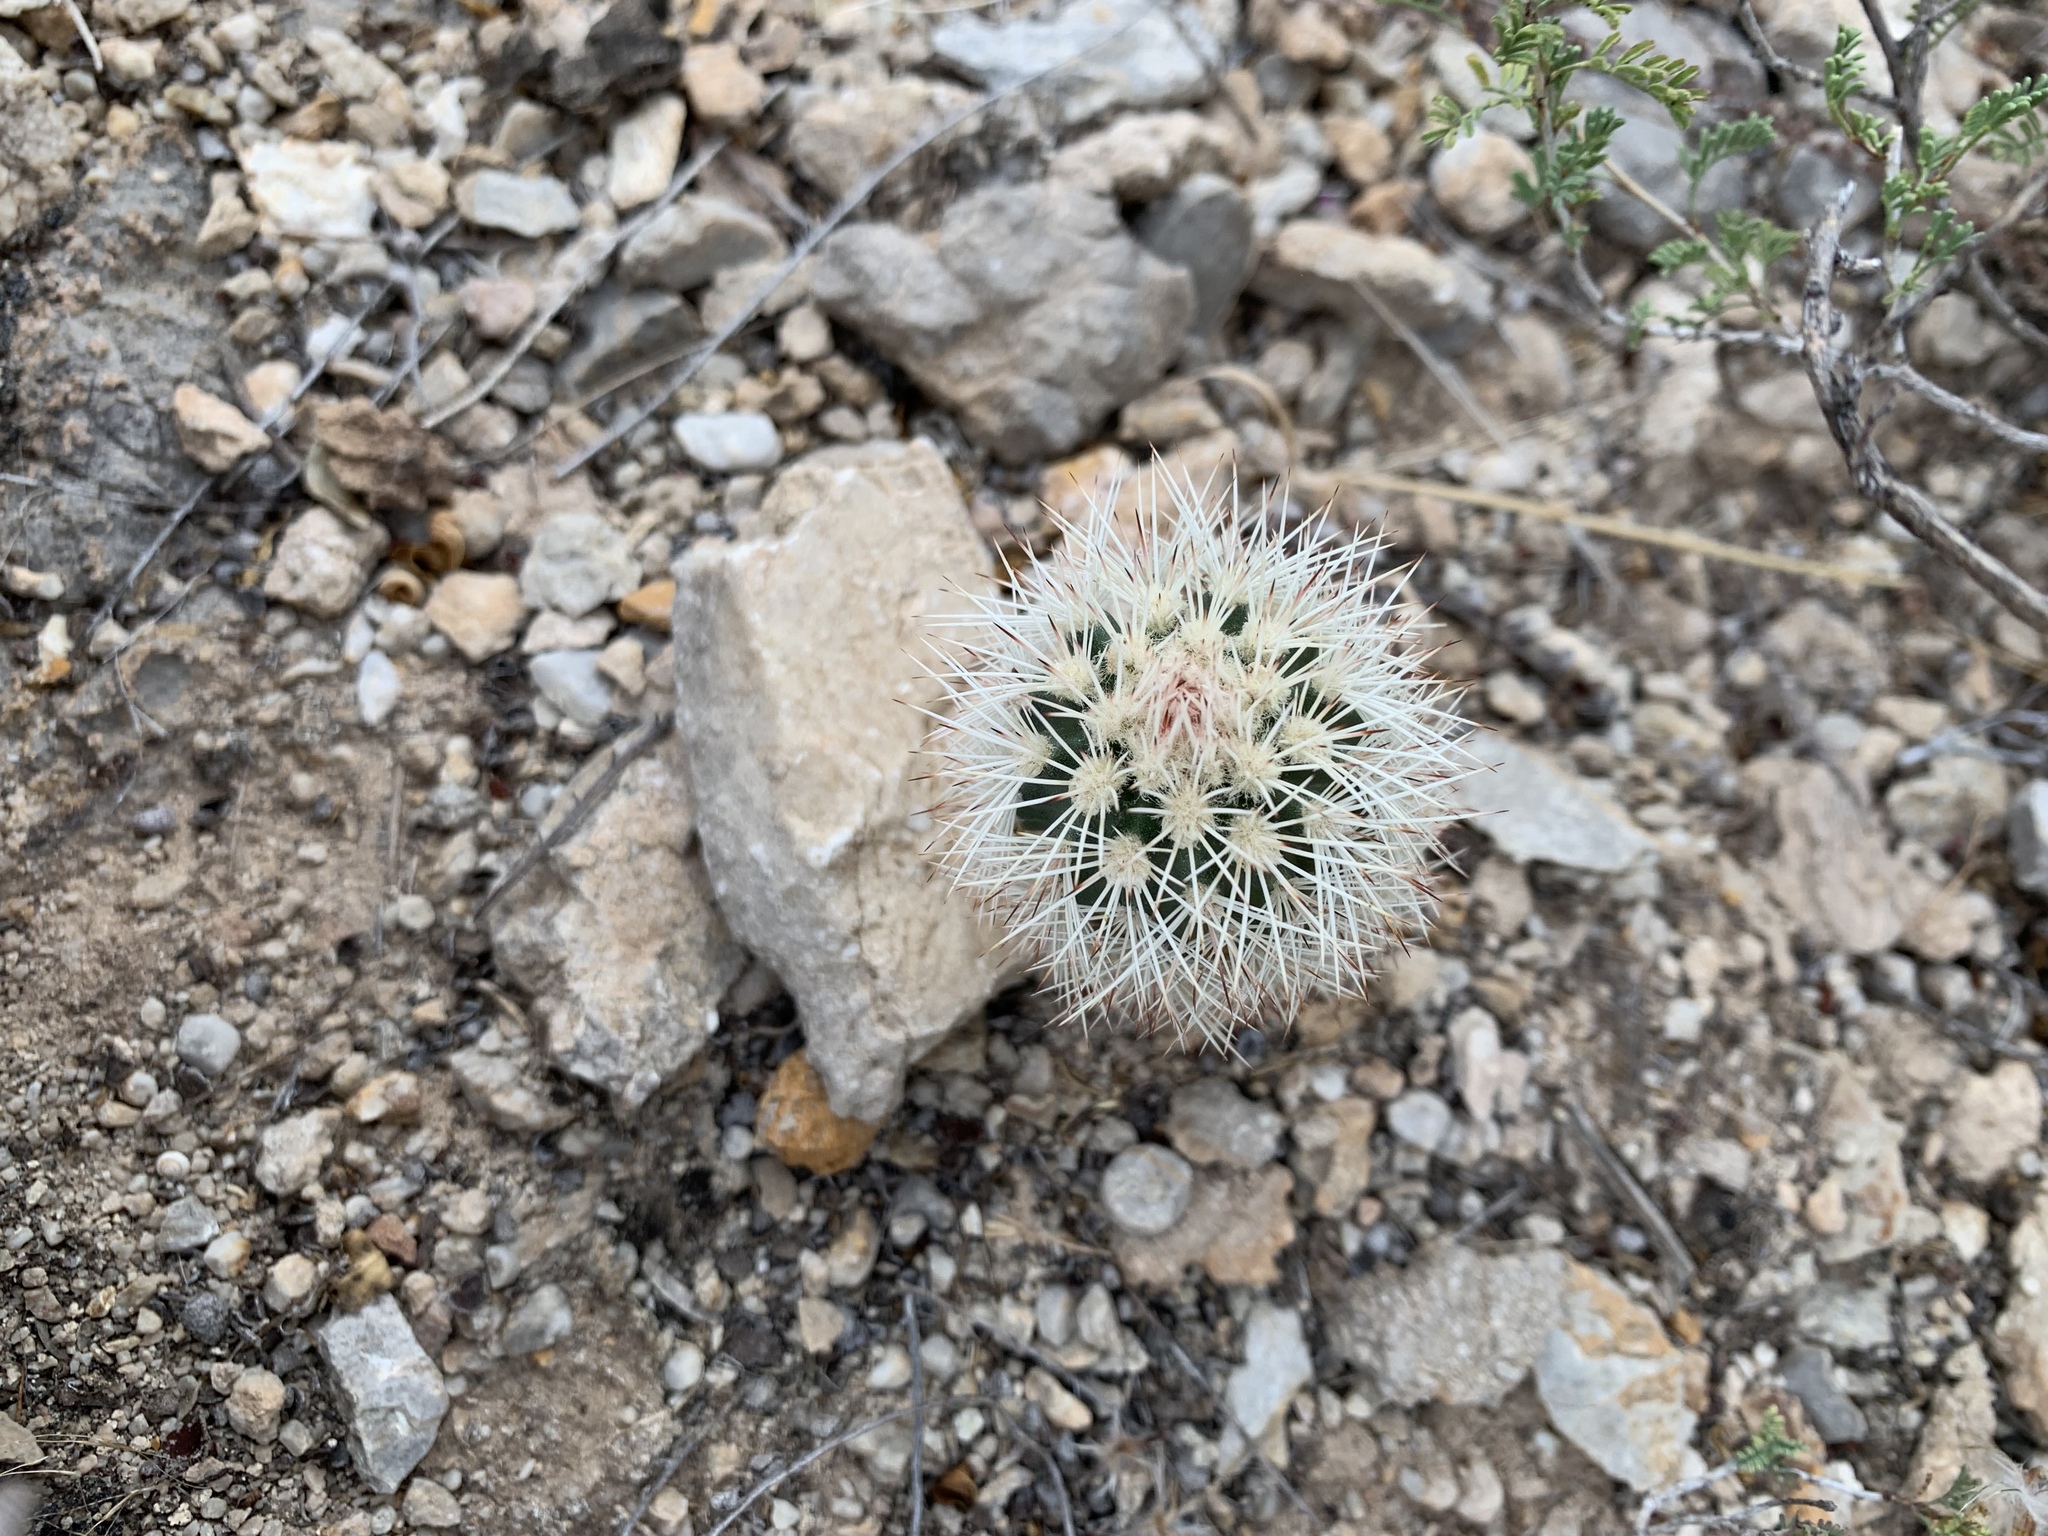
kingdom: Plantae
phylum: Tracheophyta
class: Magnoliopsida
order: Caryophyllales
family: Cactaceae
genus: Echinocereus
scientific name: Echinocereus dasyacanthus
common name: Spiny hedgehog cactus
